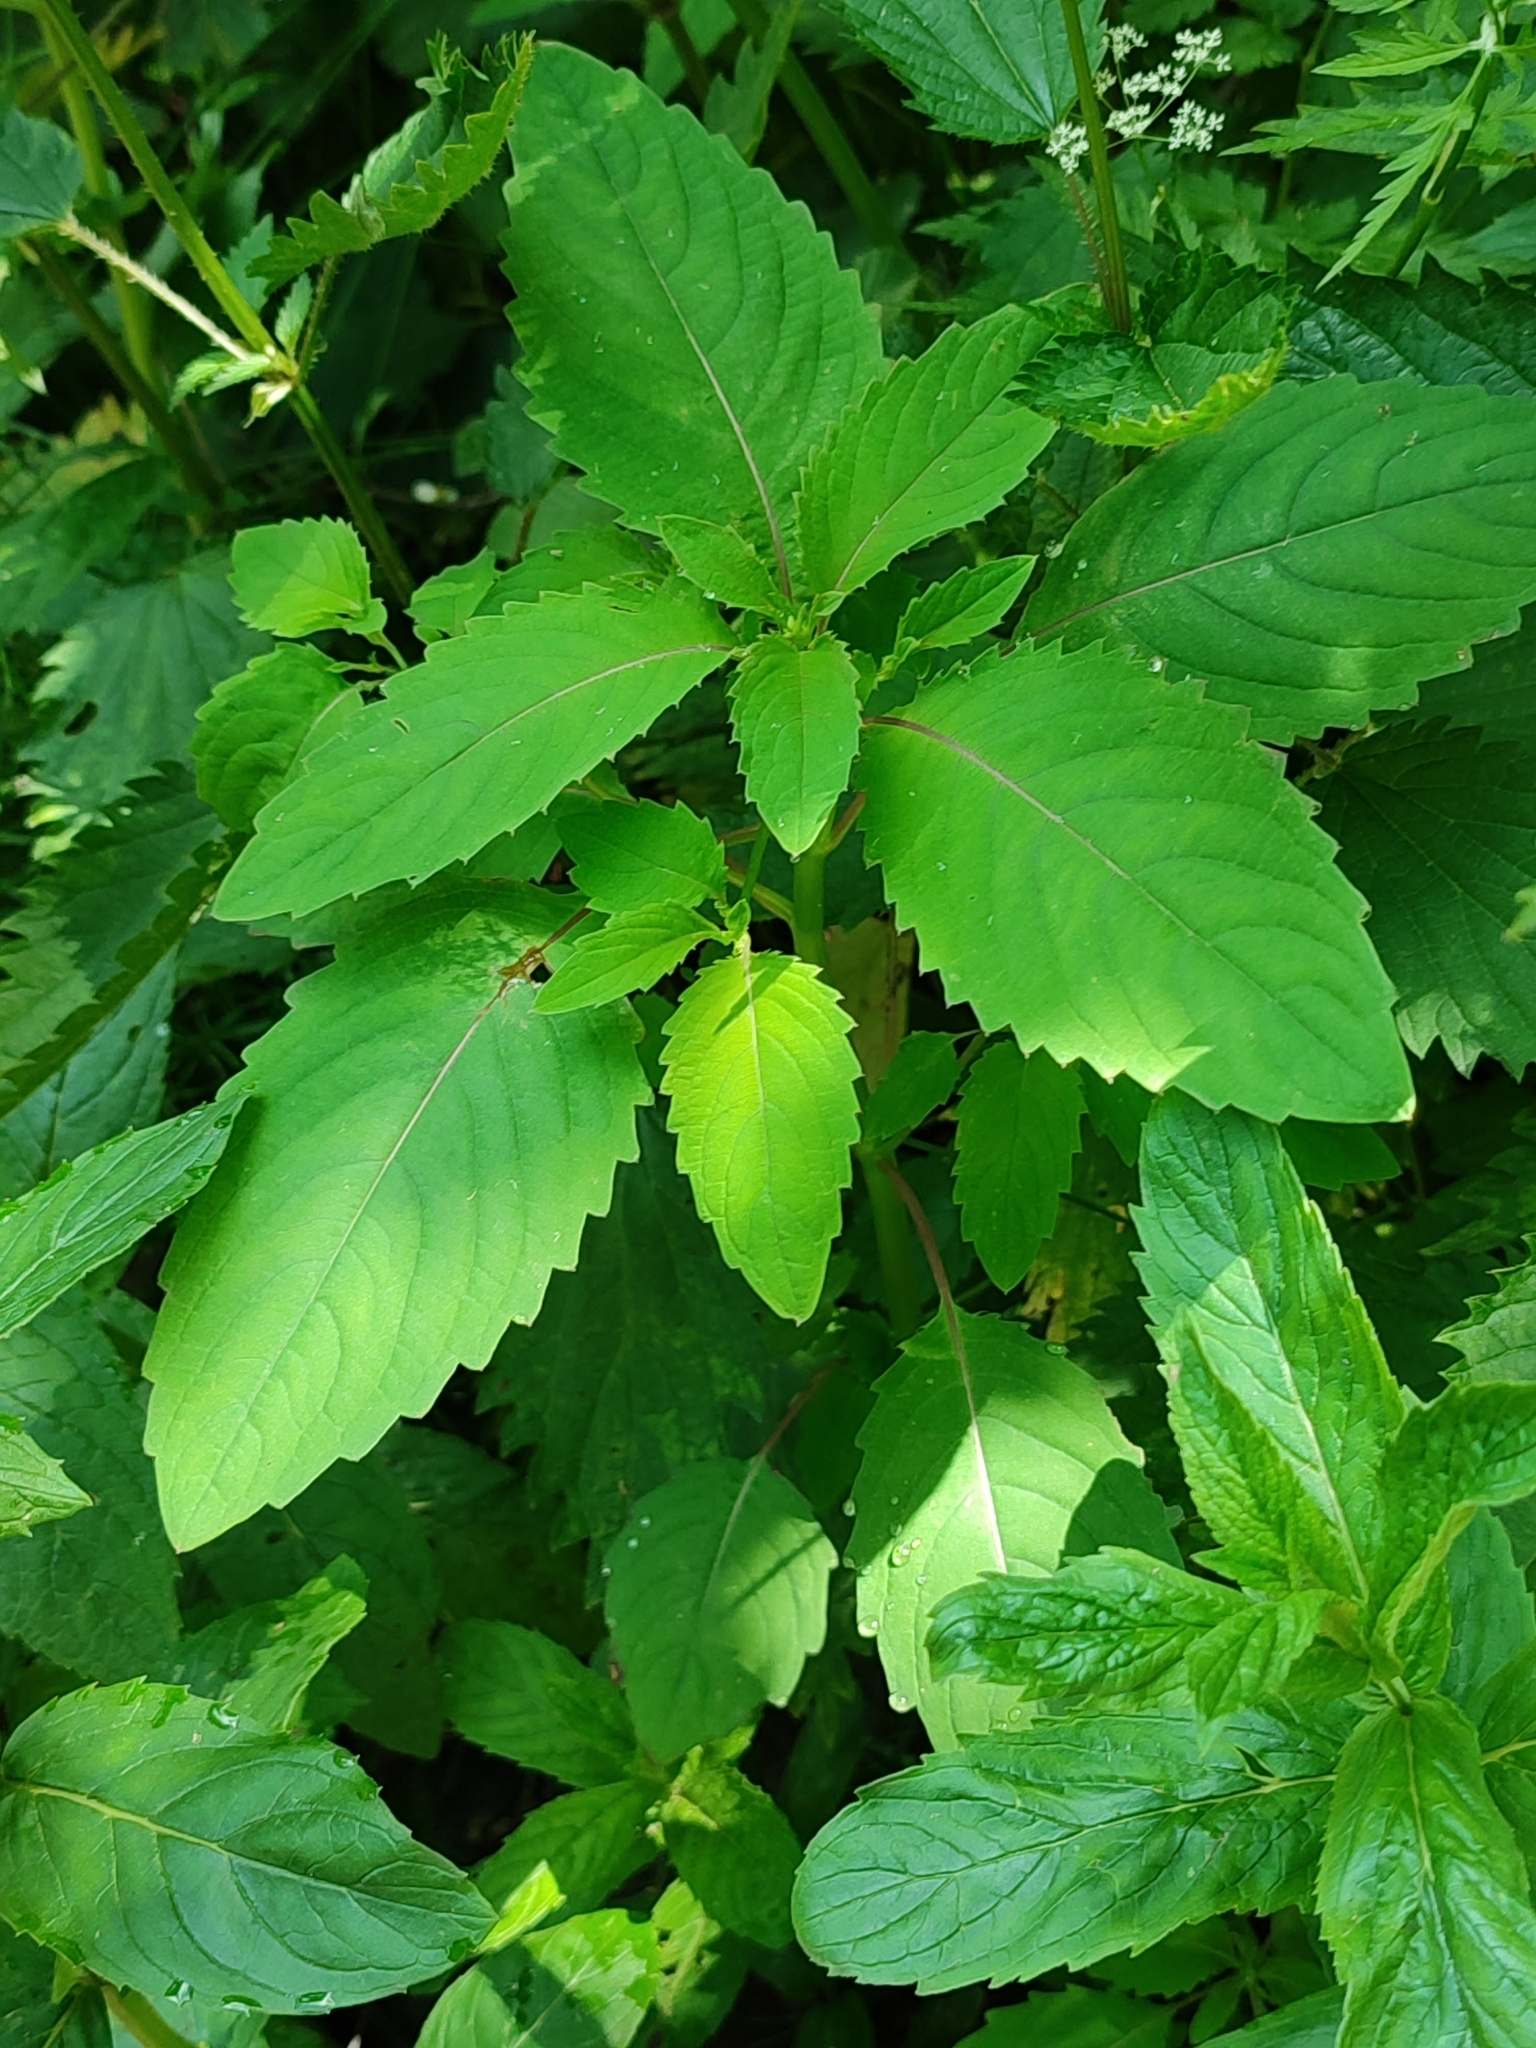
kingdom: Plantae
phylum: Tracheophyta
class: Magnoliopsida
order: Ericales
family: Balsaminaceae
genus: Impatiens
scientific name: Impatiens noli-tangere
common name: Touch-me-not balsam
